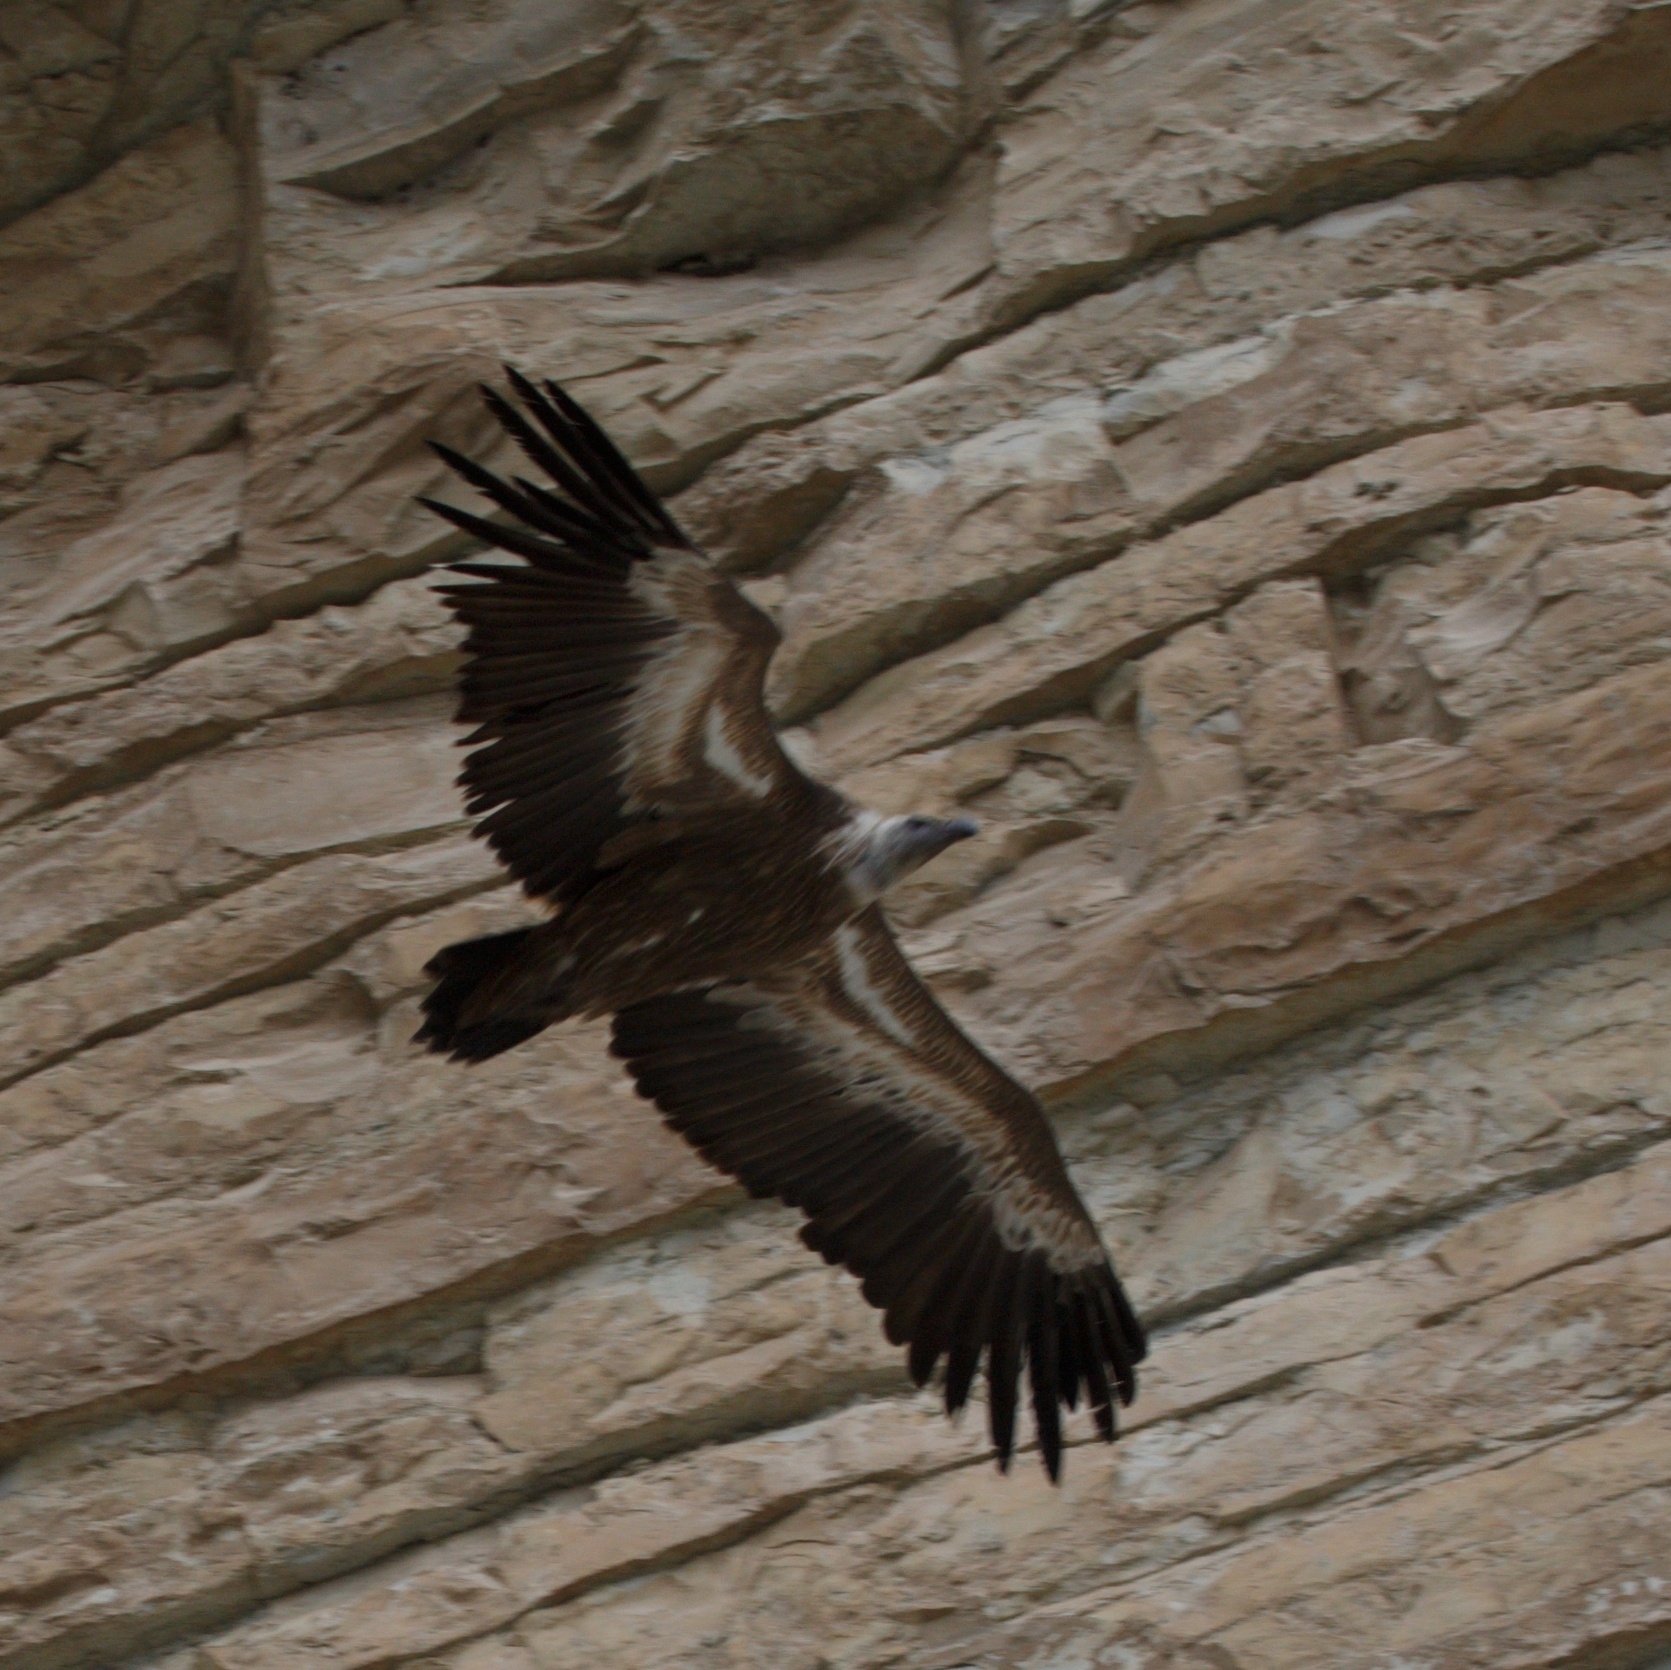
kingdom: Animalia
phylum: Chordata
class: Aves
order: Accipitriformes
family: Accipitridae
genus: Gyps
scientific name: Gyps fulvus
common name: Griffon vulture
